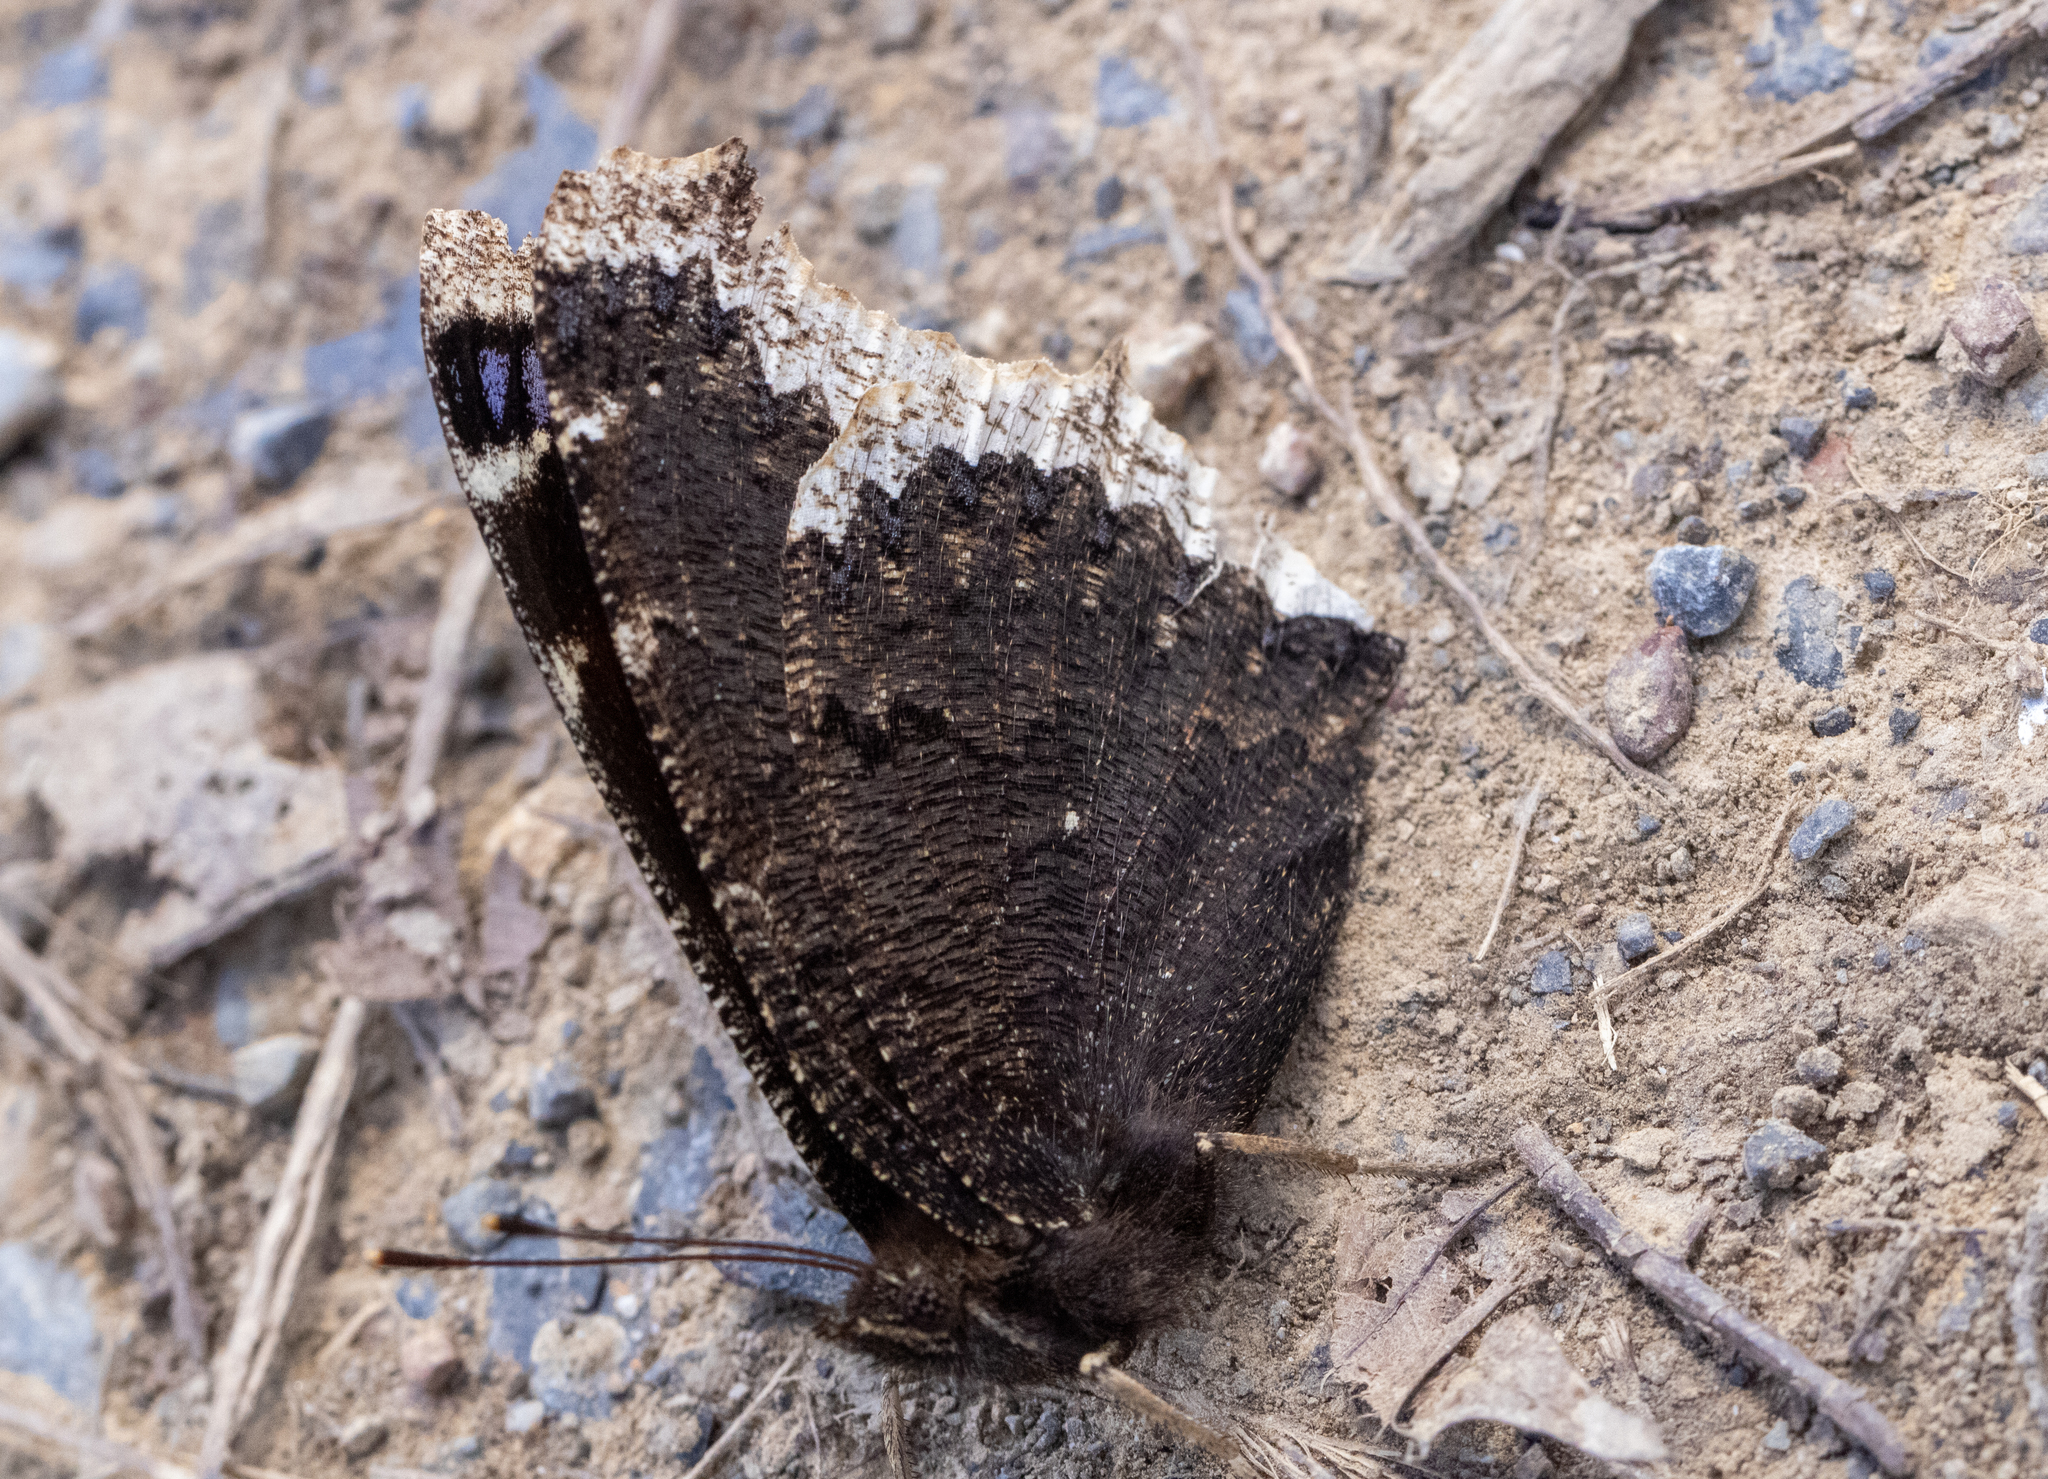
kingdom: Animalia
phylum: Arthropoda
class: Insecta
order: Lepidoptera
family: Nymphalidae
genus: Nymphalis
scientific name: Nymphalis antiopa
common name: Camberwell beauty
